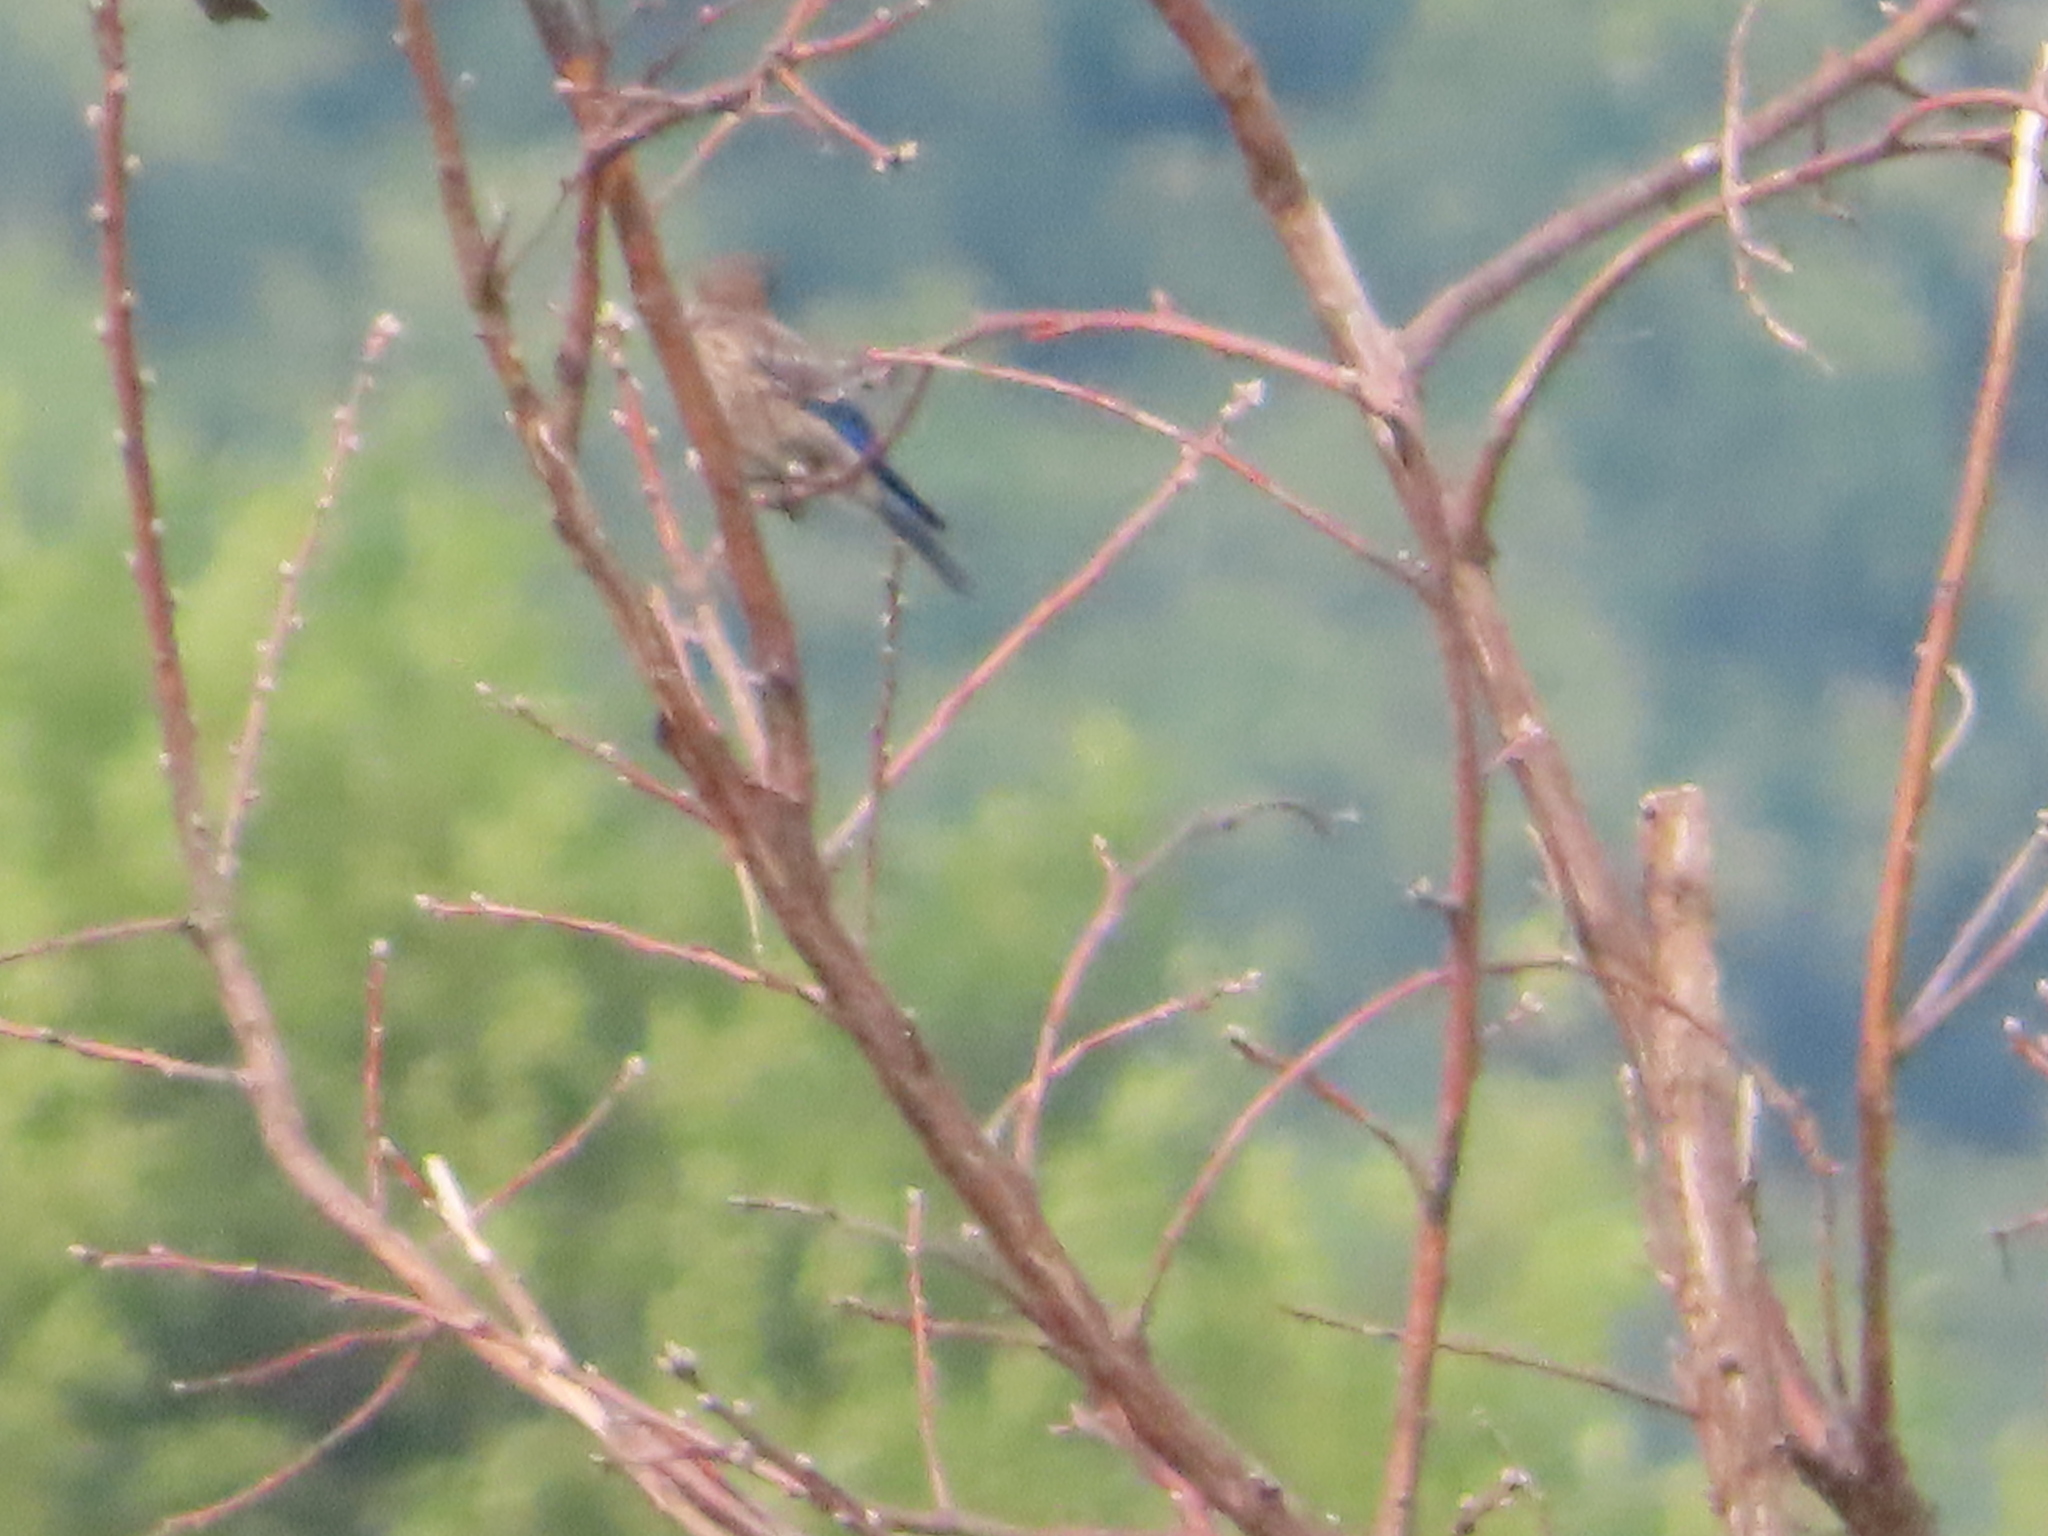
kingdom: Animalia
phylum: Chordata
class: Aves
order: Passeriformes
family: Turdidae
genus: Sialia
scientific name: Sialia sialis
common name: Eastern bluebird
